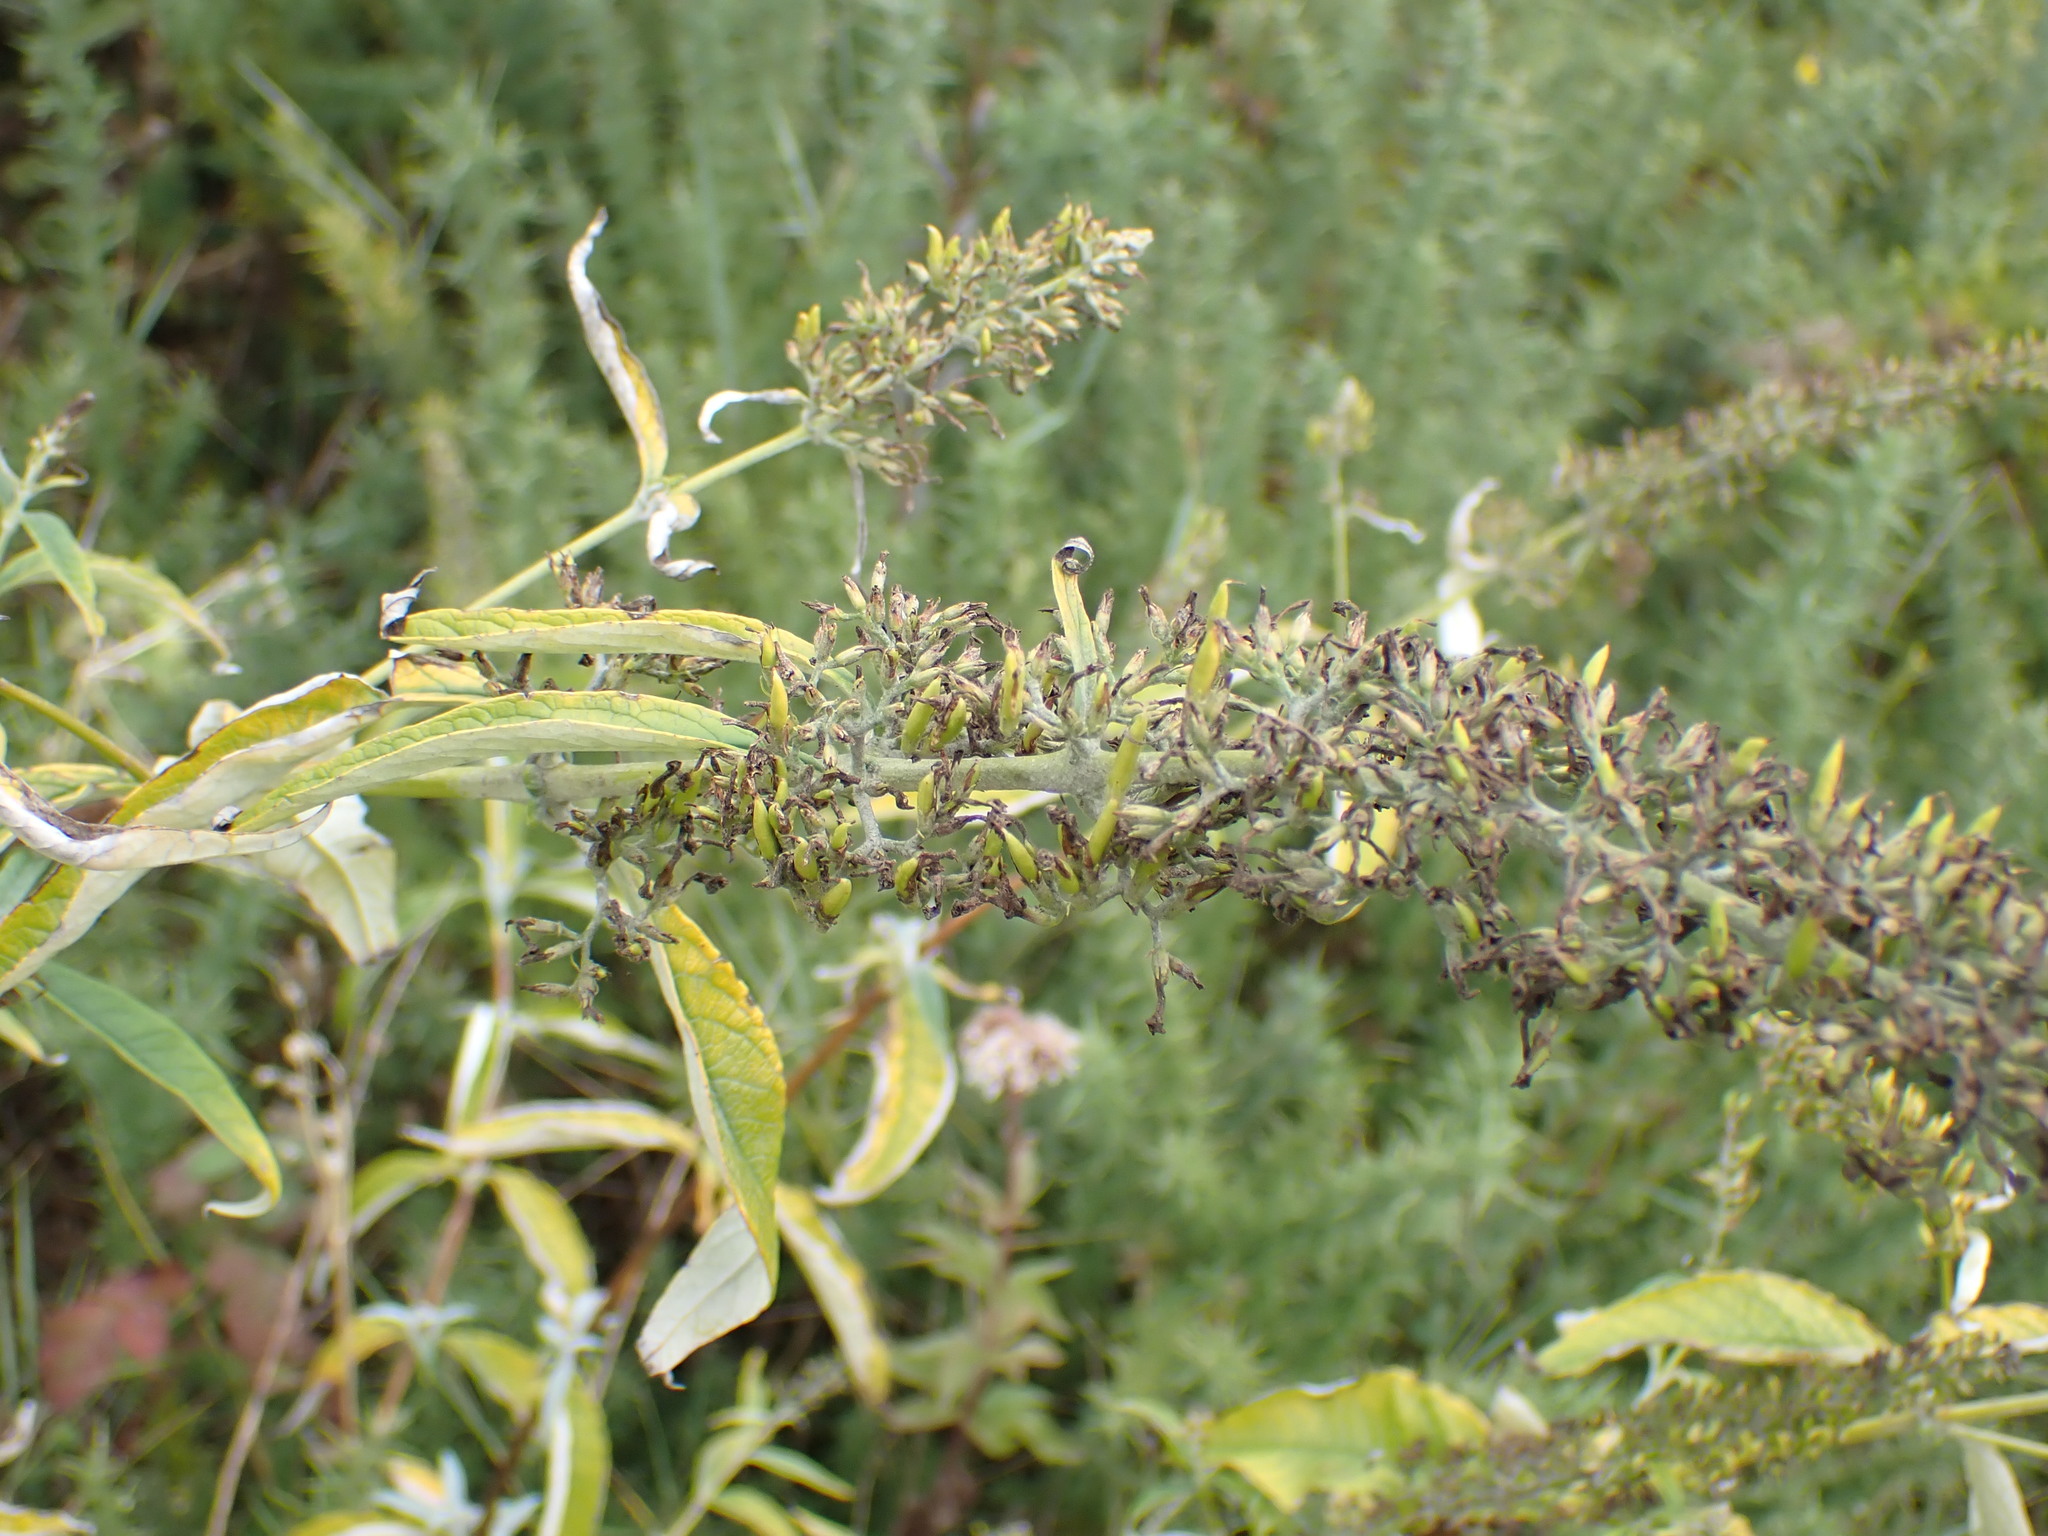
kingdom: Plantae
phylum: Tracheophyta
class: Magnoliopsida
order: Lamiales
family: Scrophulariaceae
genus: Buddleja
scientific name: Buddleja davidii
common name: Butterfly-bush
